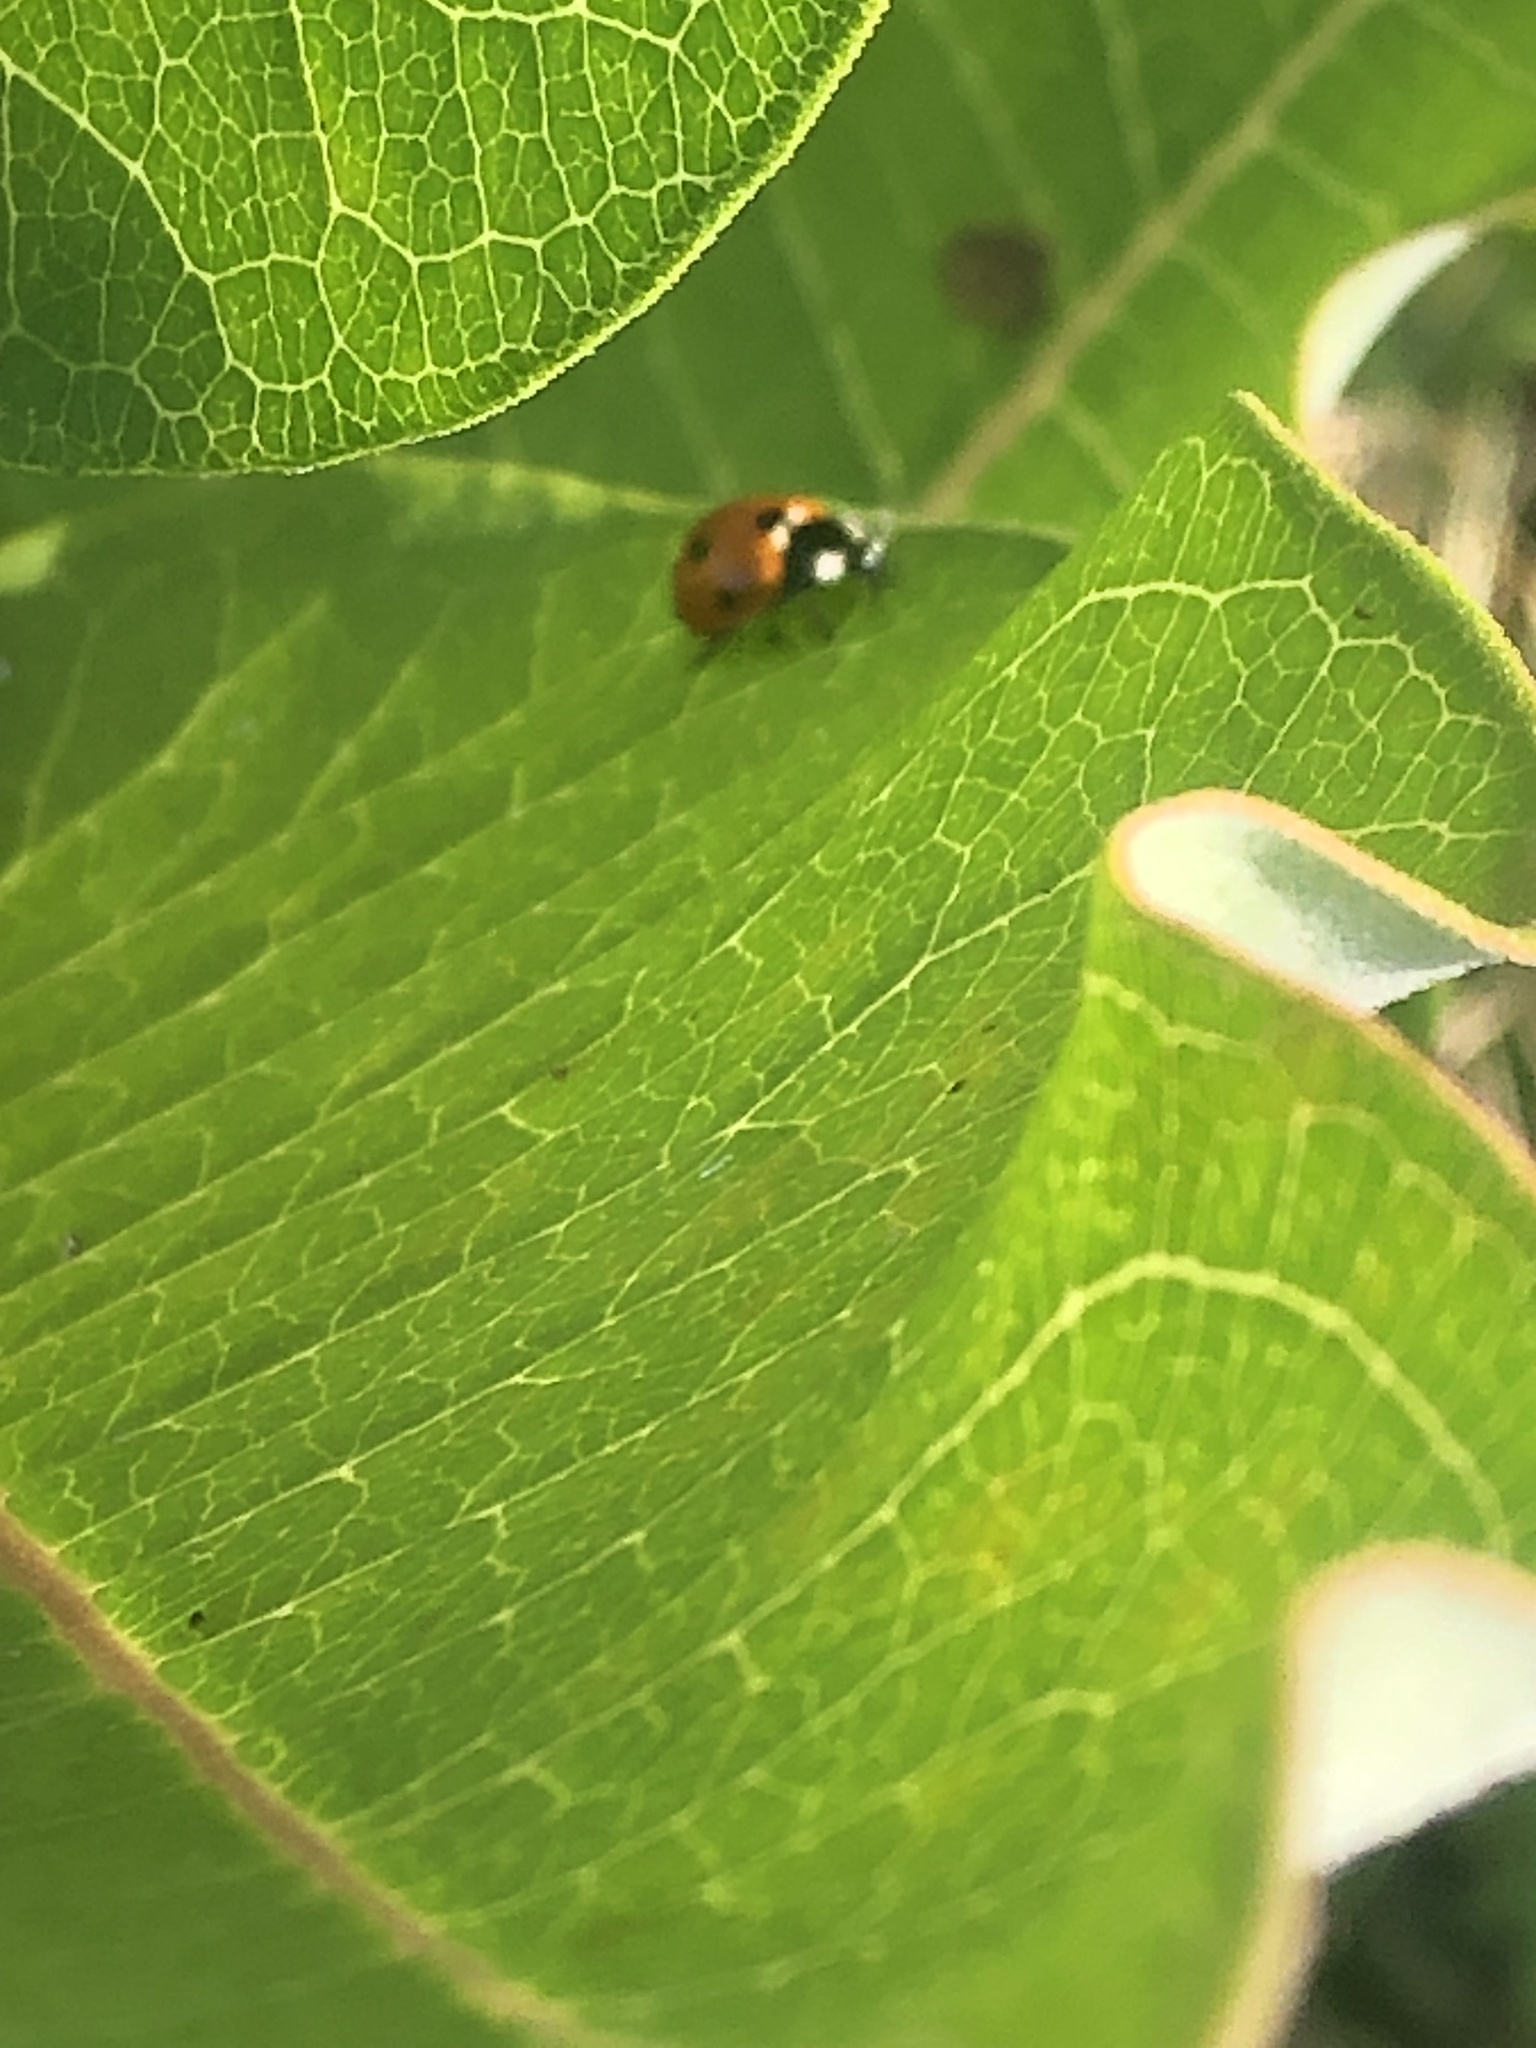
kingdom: Animalia
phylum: Arthropoda
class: Insecta
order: Coleoptera
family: Coccinellidae
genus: Coccinella
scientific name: Coccinella septempunctata
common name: Sevenspotted lady beetle
